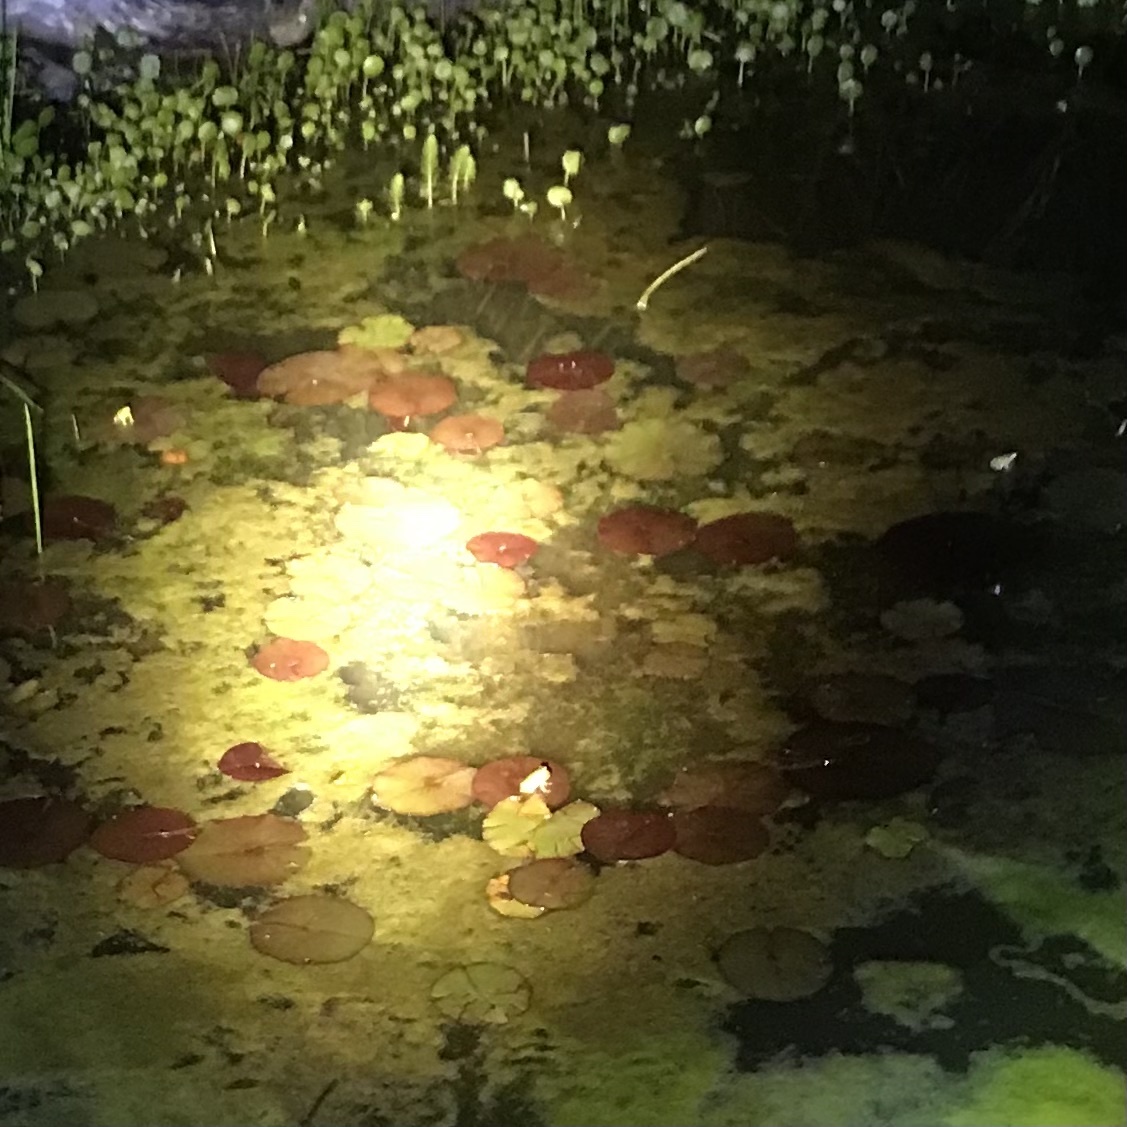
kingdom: Animalia
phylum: Chordata
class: Amphibia
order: Anura
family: Pelodryadidae
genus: Litoria
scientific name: Litoria fallax
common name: Eastern dwarf treefrog
